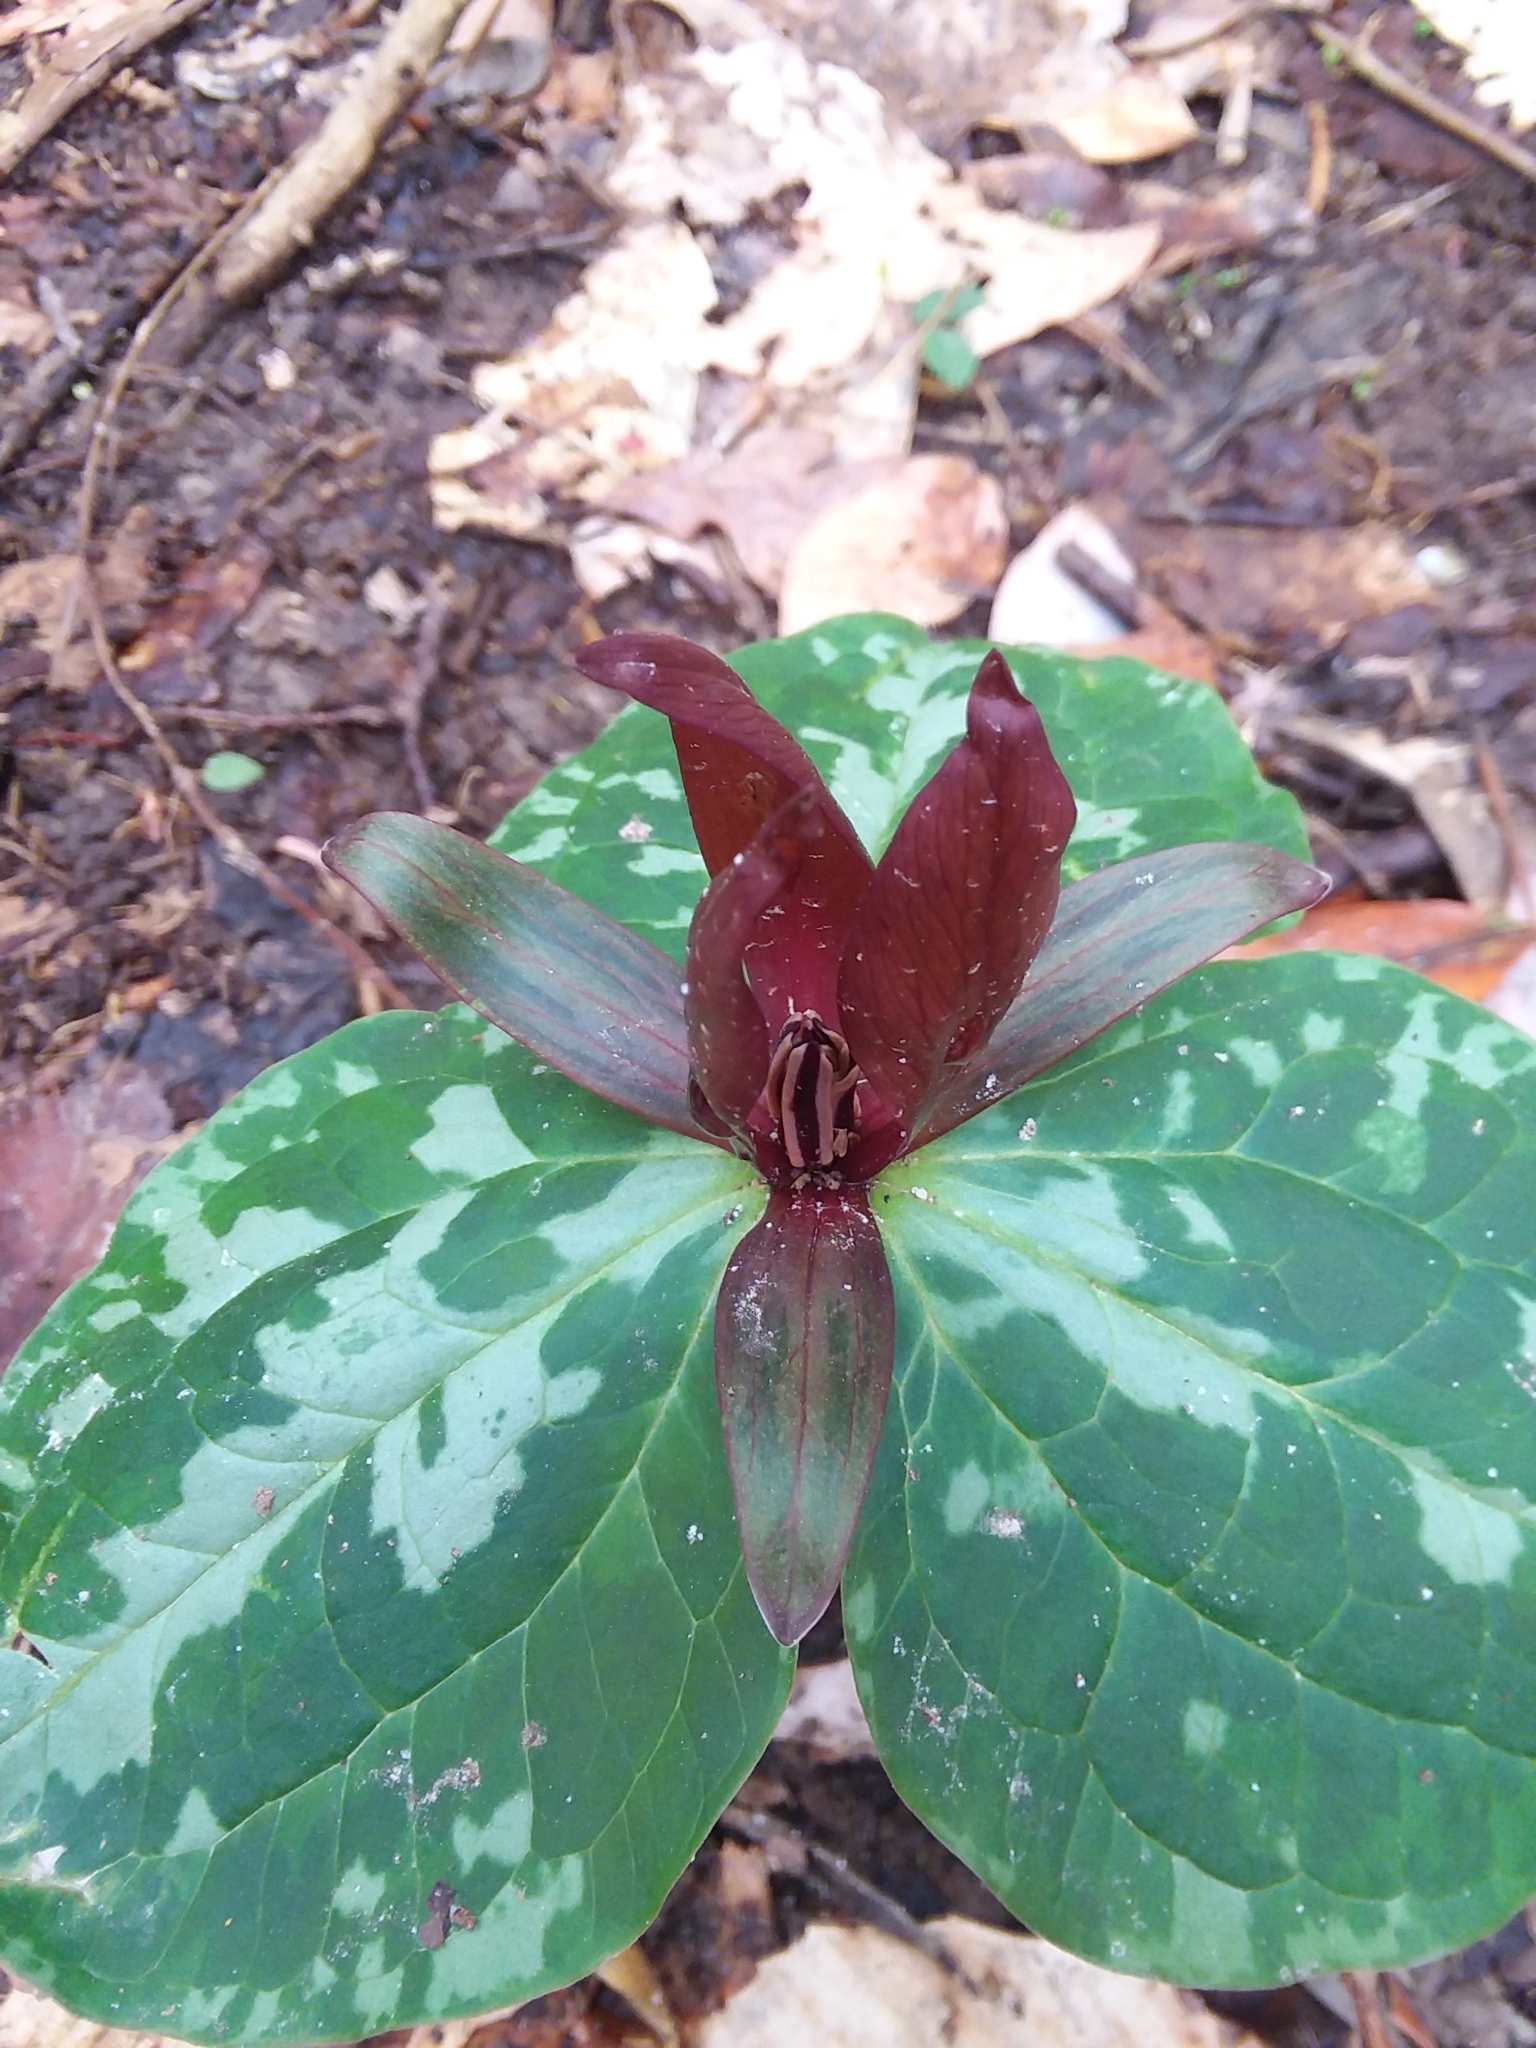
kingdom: Plantae
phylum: Tracheophyta
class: Liliopsida
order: Liliales
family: Melanthiaceae
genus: Trillium
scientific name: Trillium cuneatum
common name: Cuneate trillium
